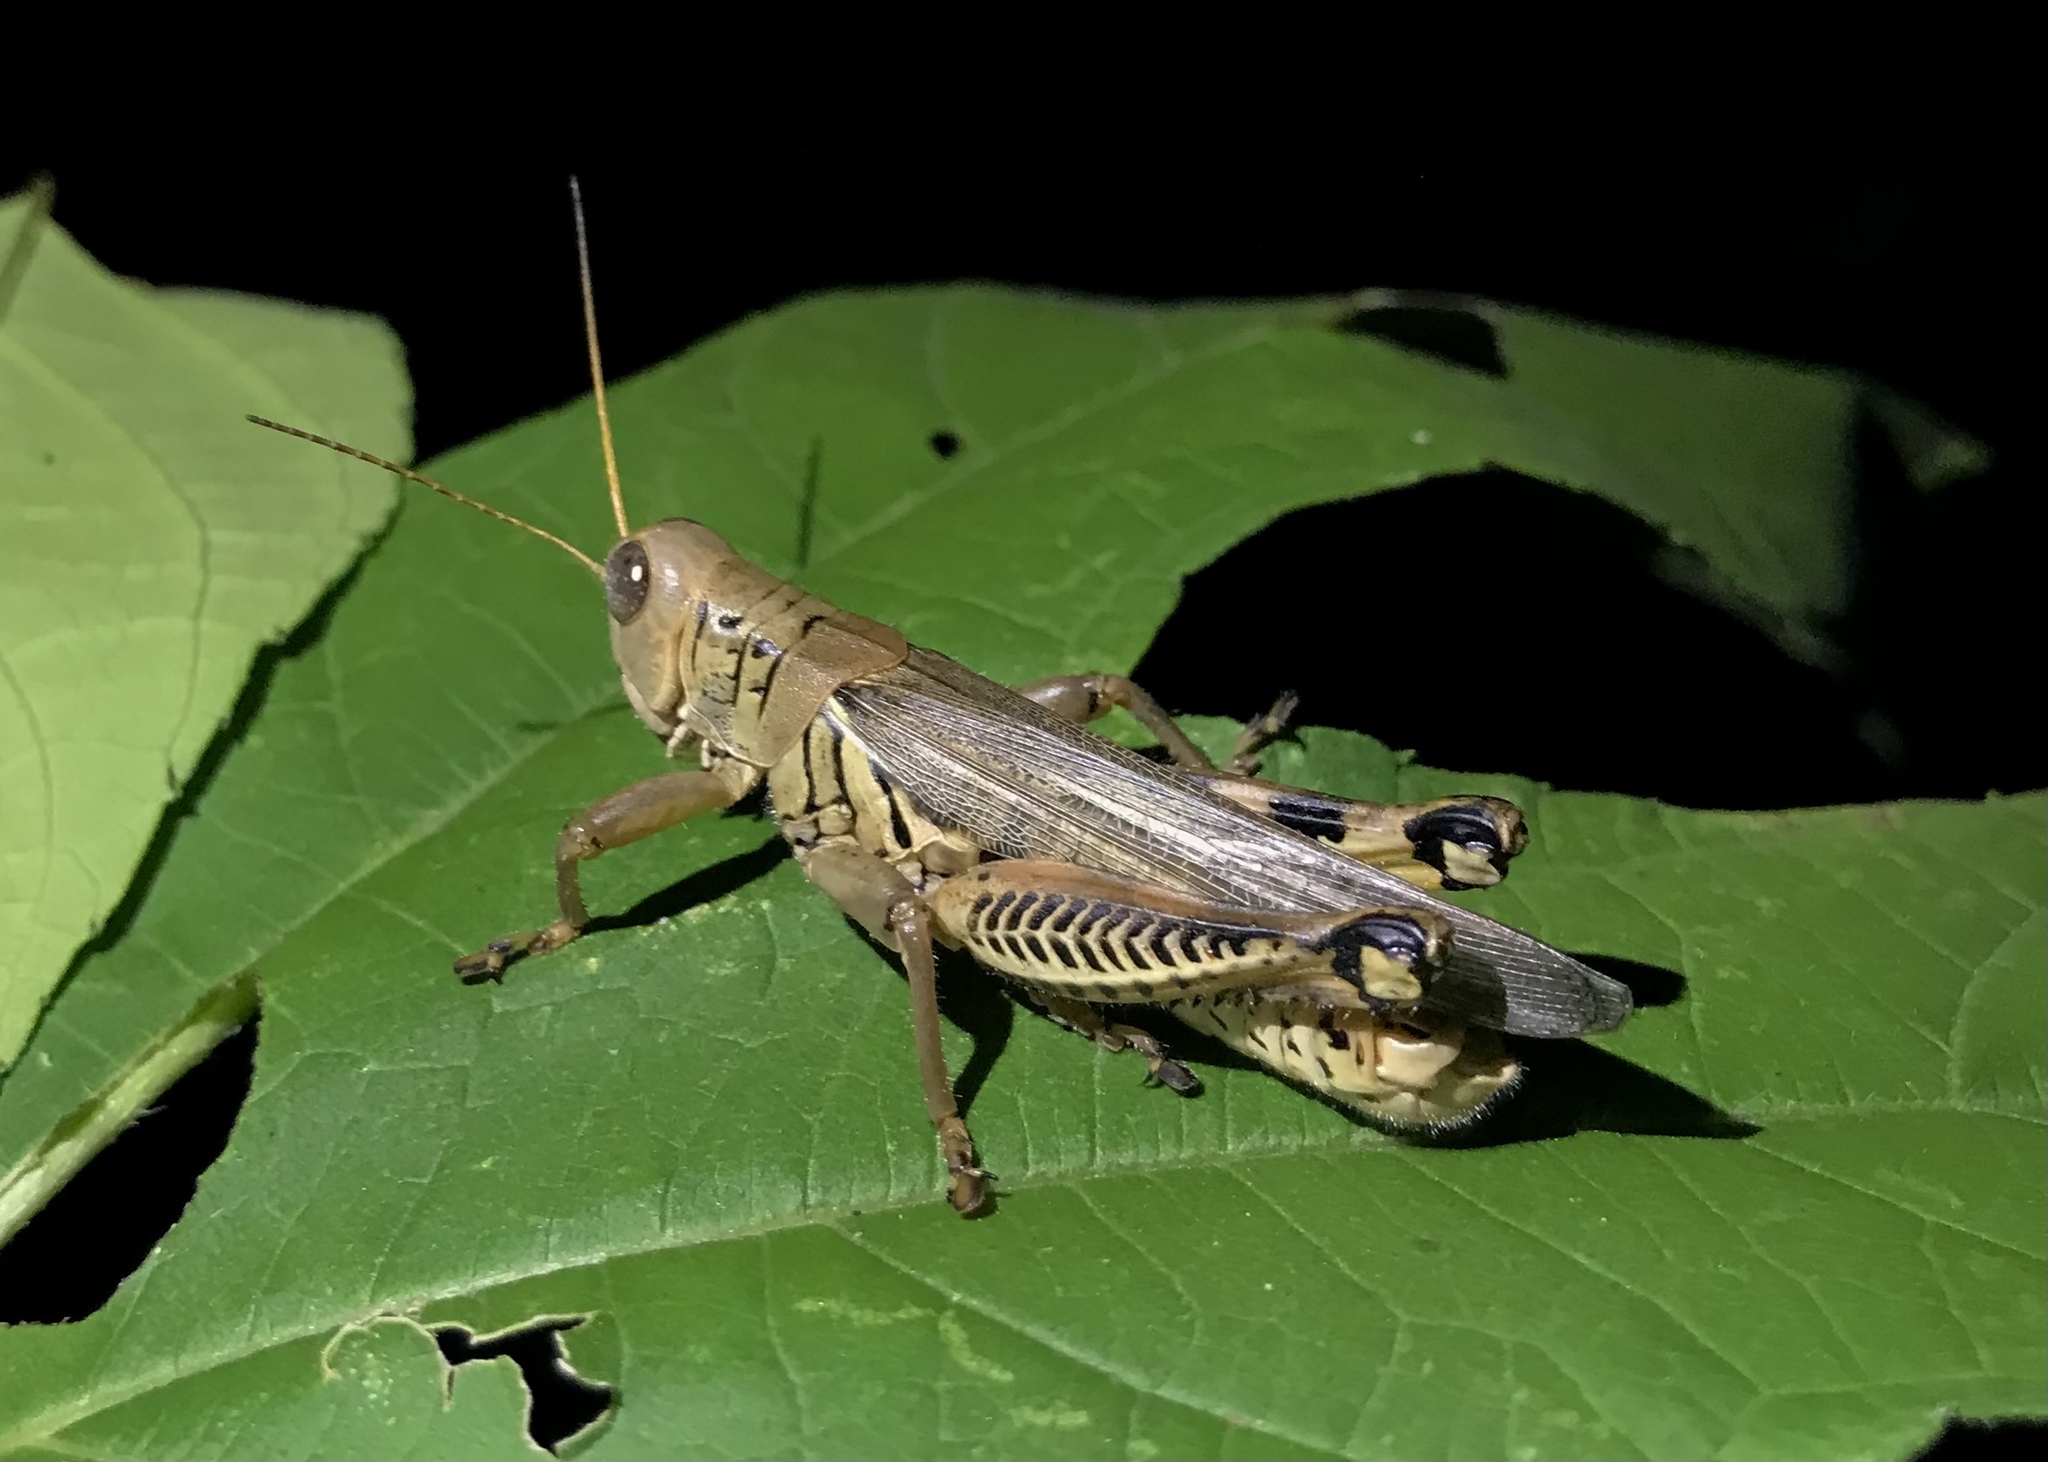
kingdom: Animalia
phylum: Arthropoda
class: Insecta
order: Orthoptera
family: Acrididae
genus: Melanoplus
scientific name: Melanoplus differentialis
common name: Differential grasshopper
